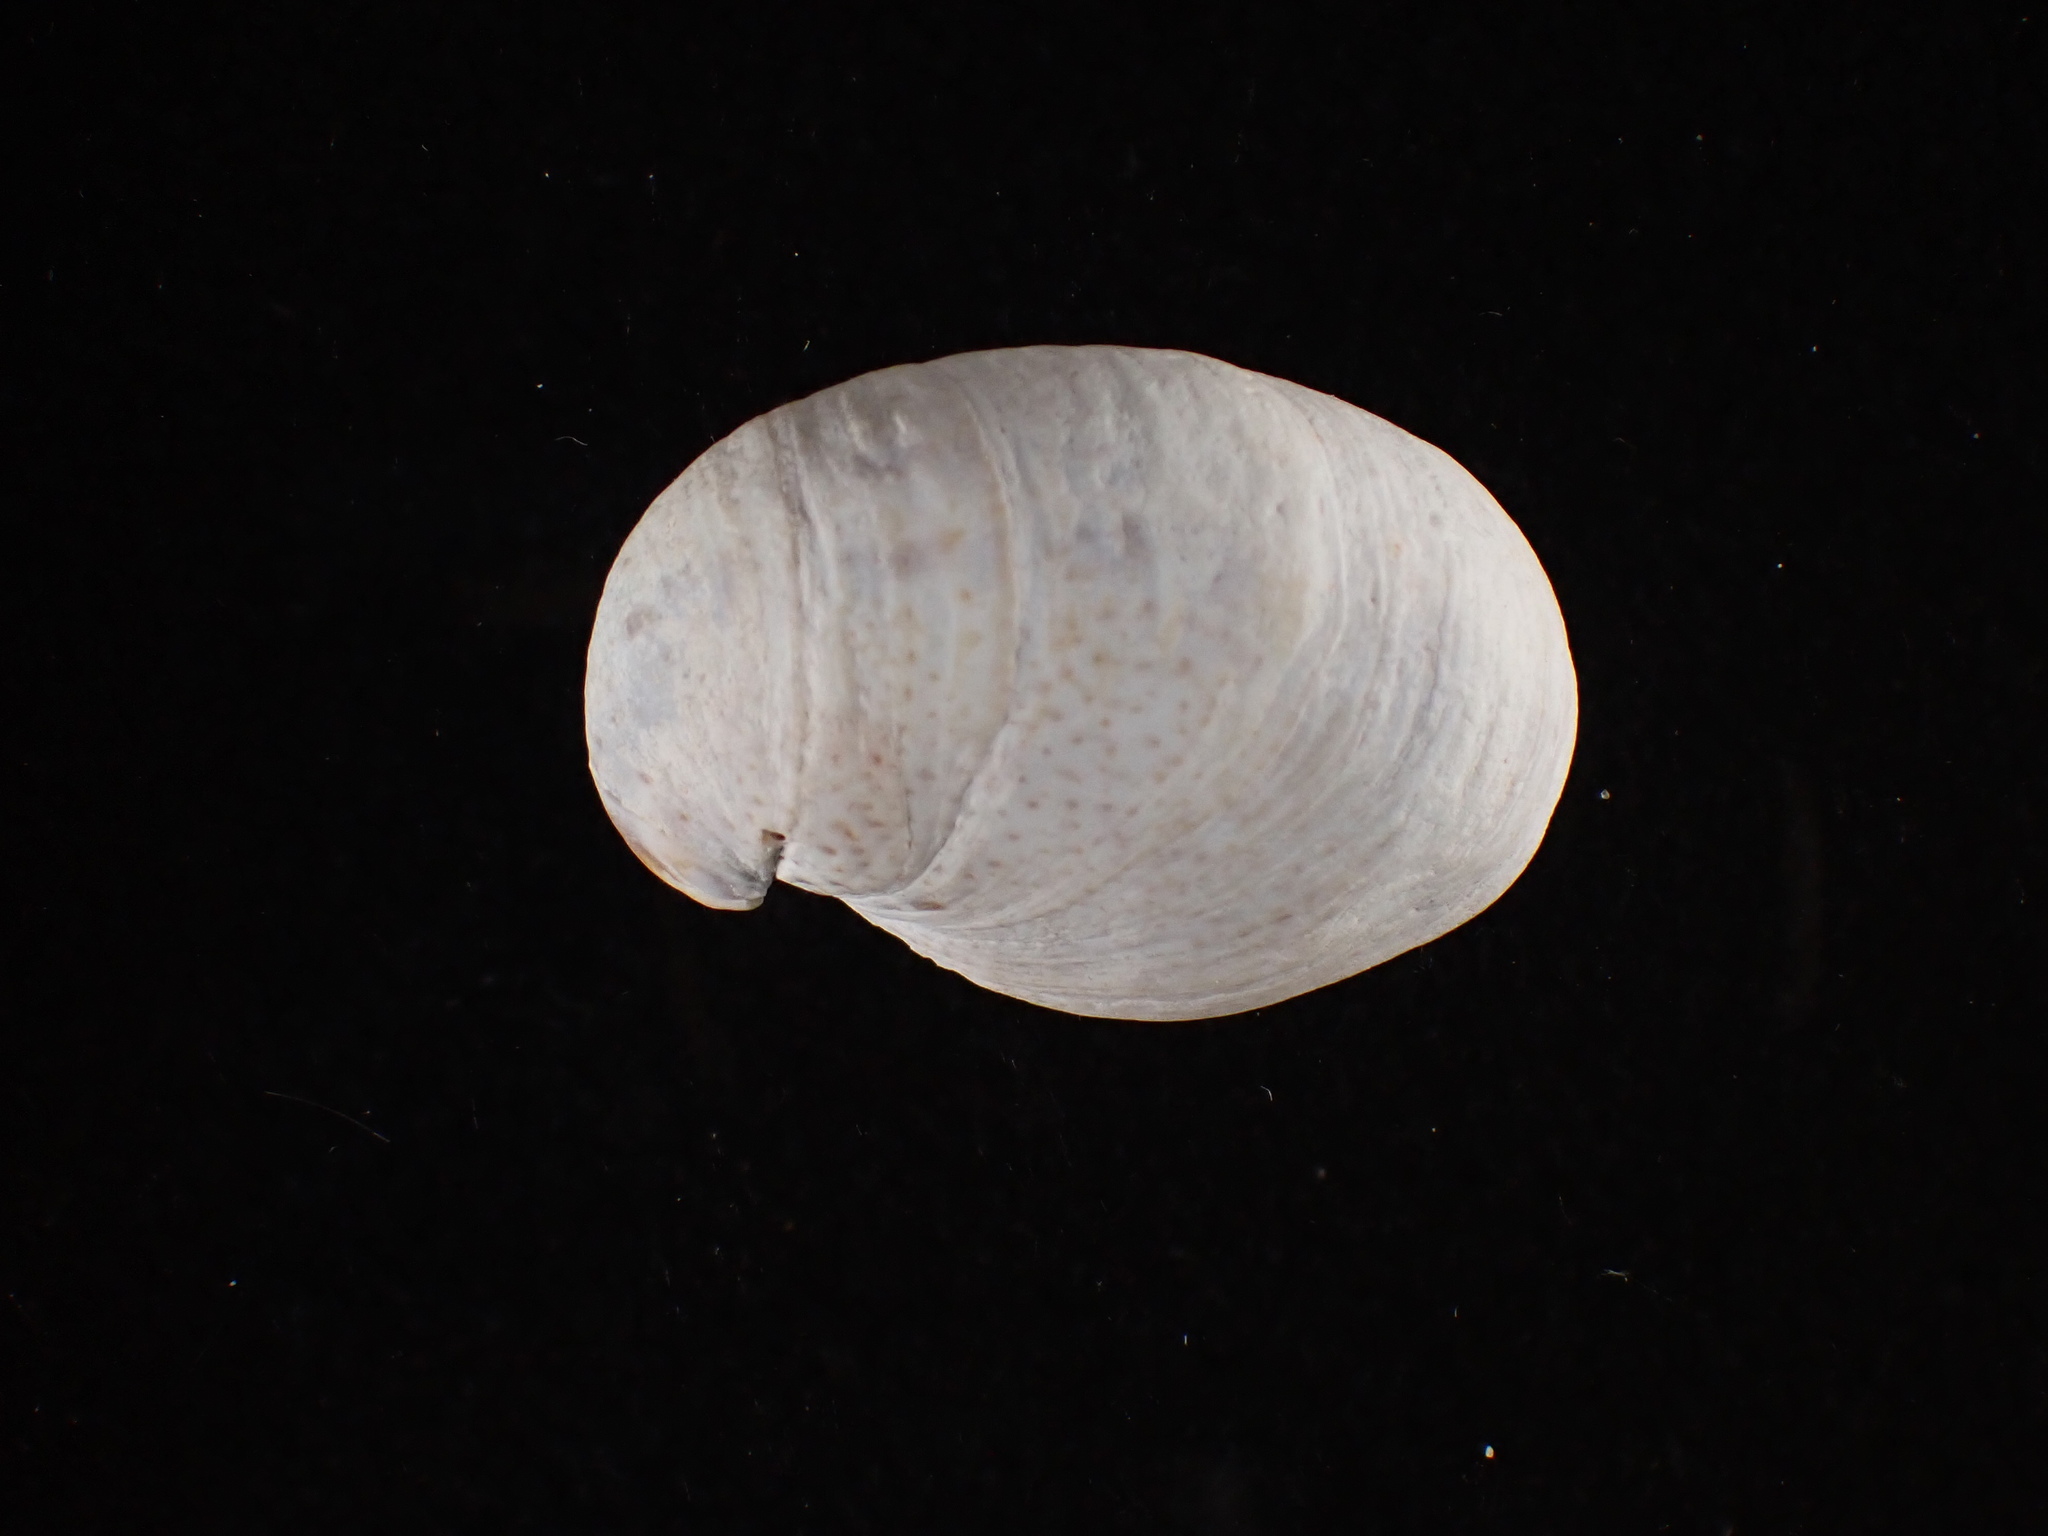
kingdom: Animalia
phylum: Mollusca
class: Gastropoda
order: Littorinimorpha
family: Calyptraeidae
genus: Crepidula
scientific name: Crepidula fornicata
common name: Slipper limpet
